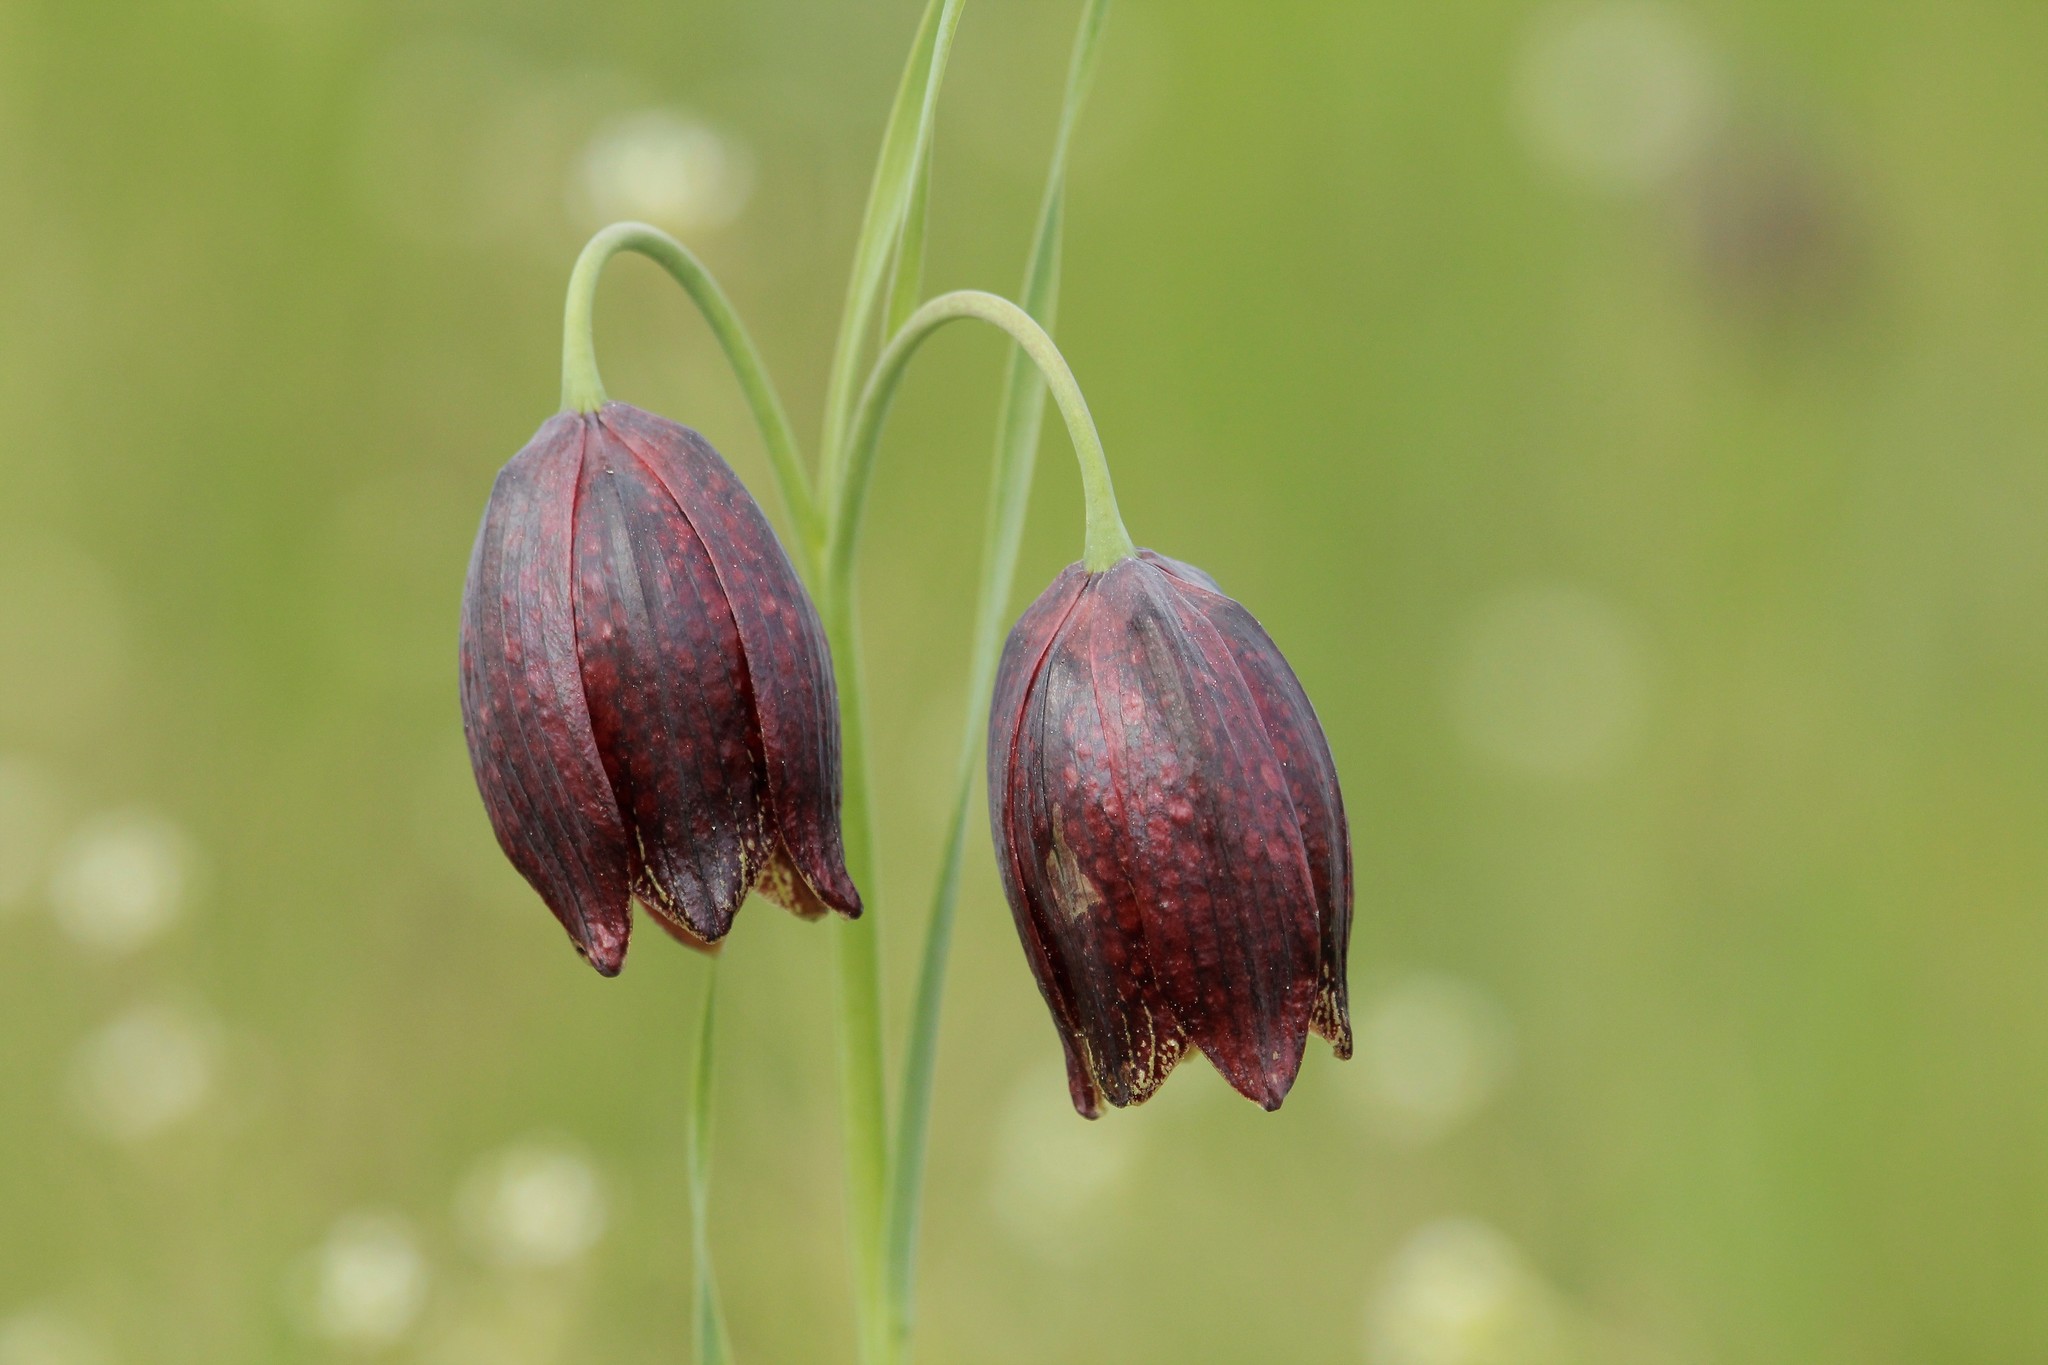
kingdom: Plantae
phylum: Tracheophyta
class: Liliopsida
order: Liliales
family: Liliaceae
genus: Fritillaria
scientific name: Fritillaria meleagroides
